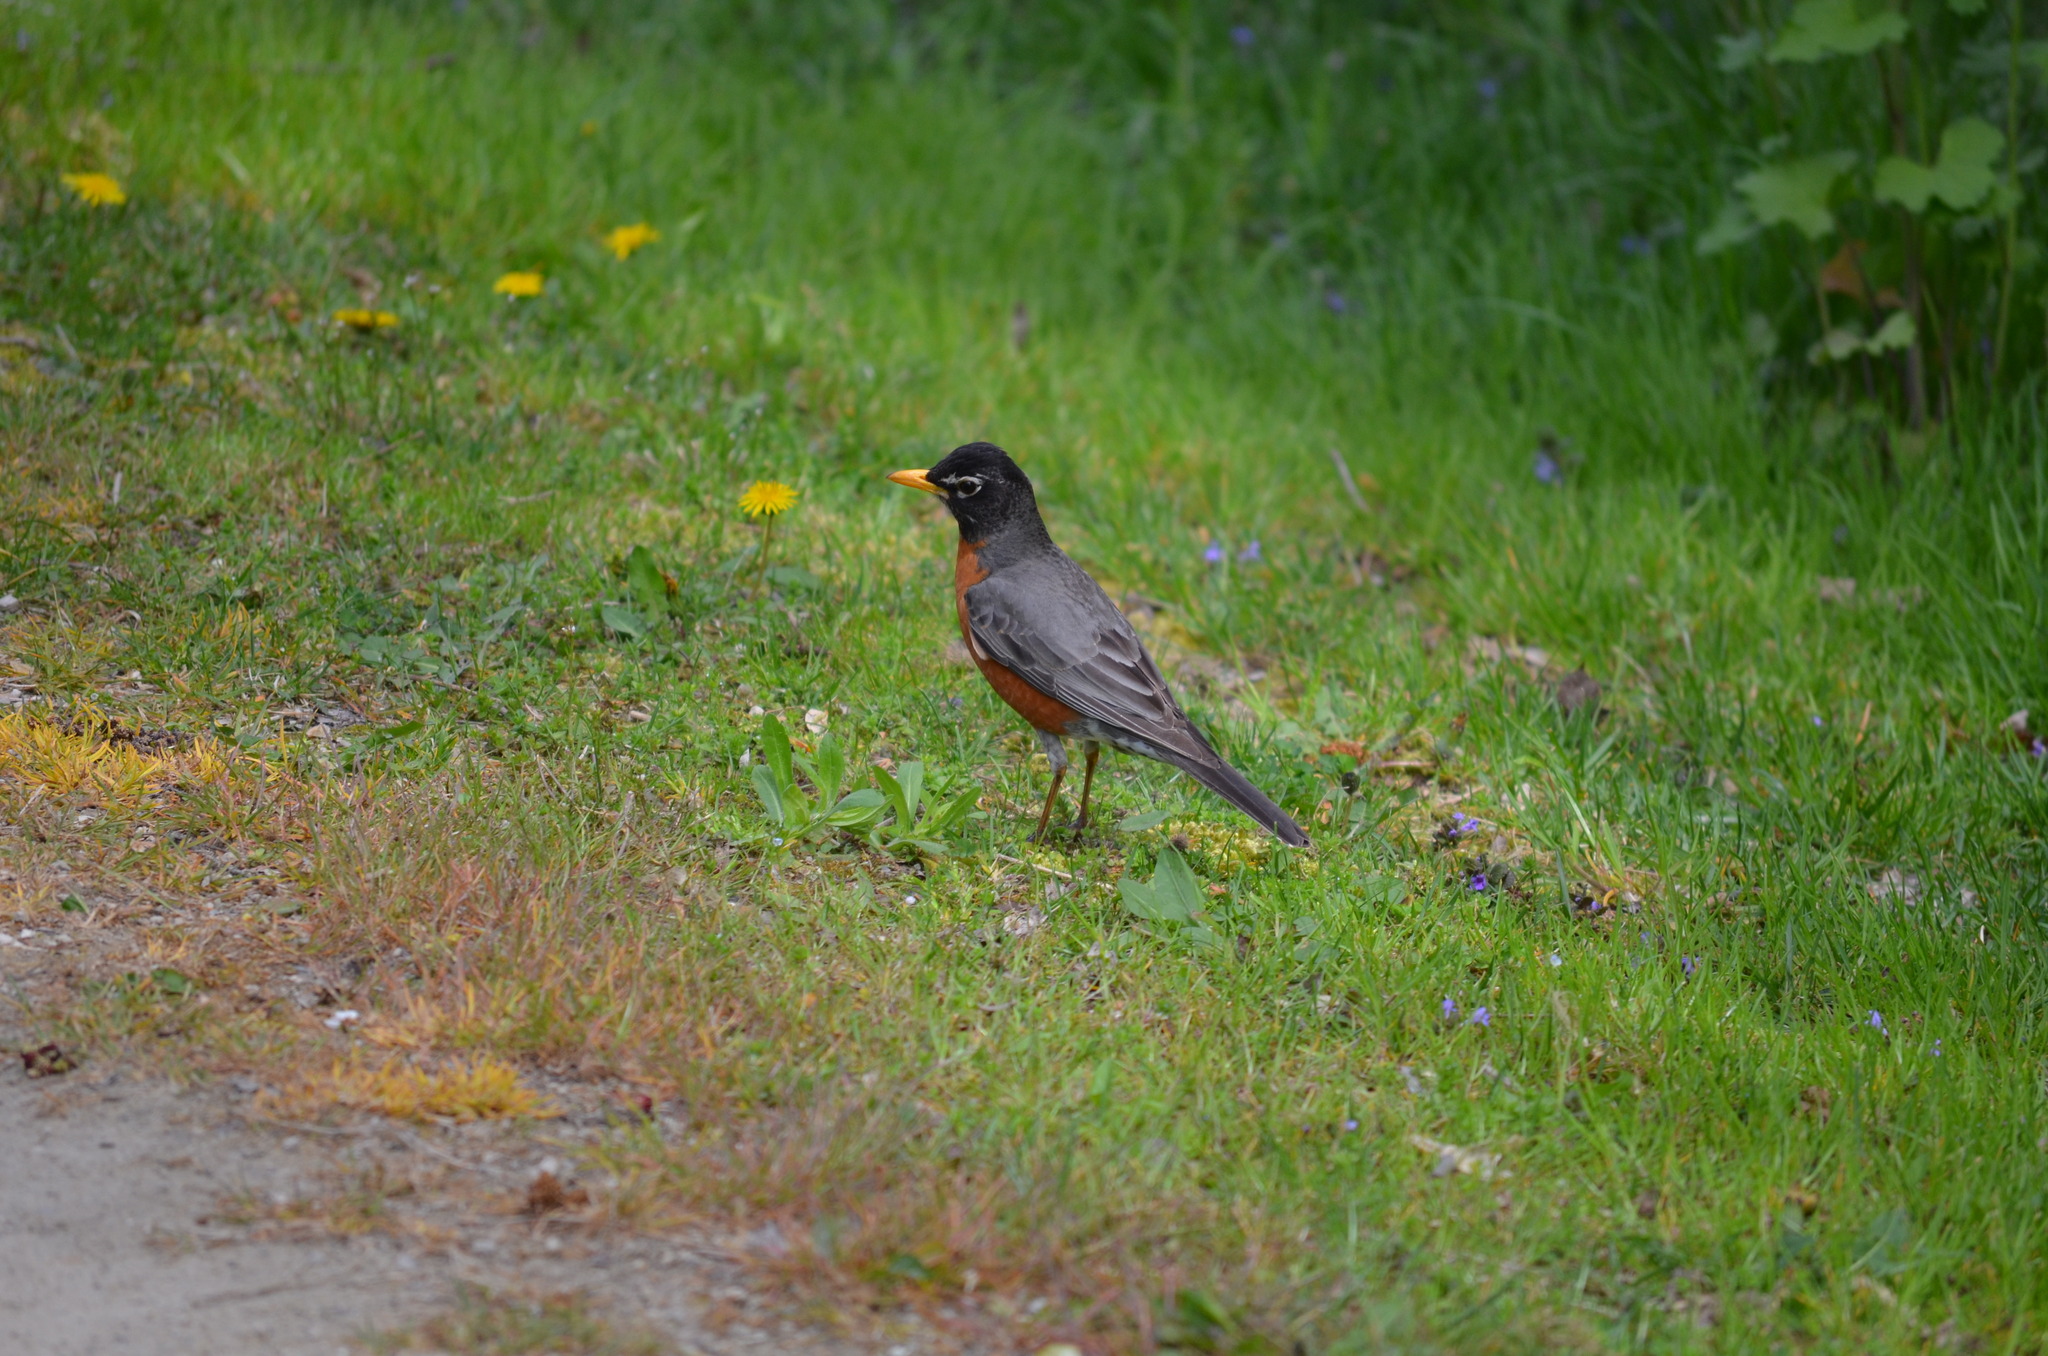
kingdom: Animalia
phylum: Chordata
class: Aves
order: Passeriformes
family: Turdidae
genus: Turdus
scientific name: Turdus migratorius
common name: American robin
